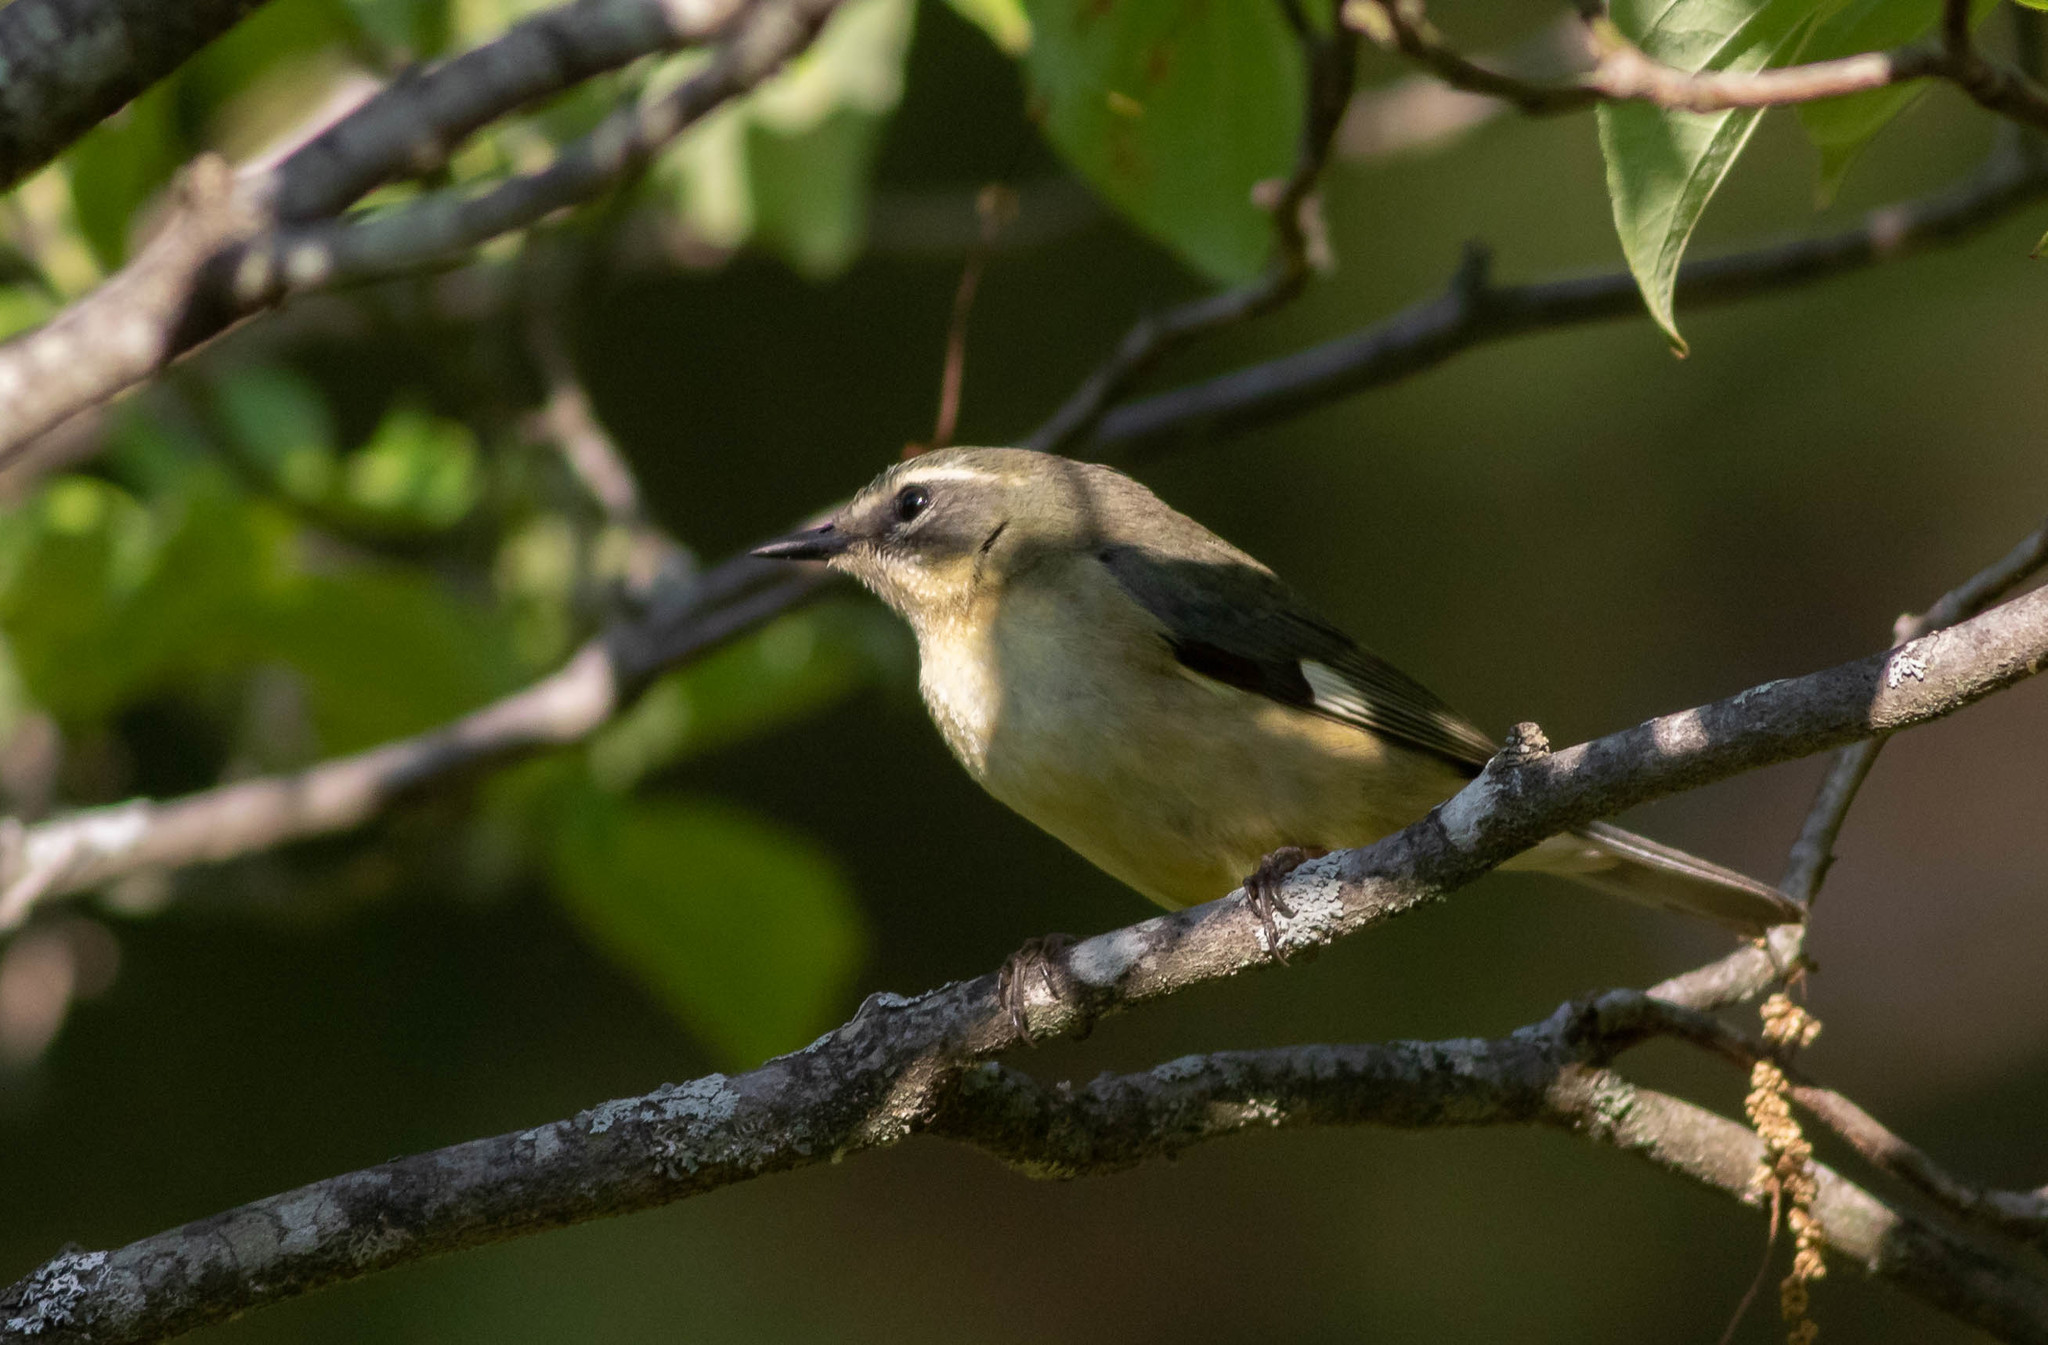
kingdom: Animalia
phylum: Chordata
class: Aves
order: Passeriformes
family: Parulidae
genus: Setophaga
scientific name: Setophaga caerulescens
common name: Black-throated blue warbler
